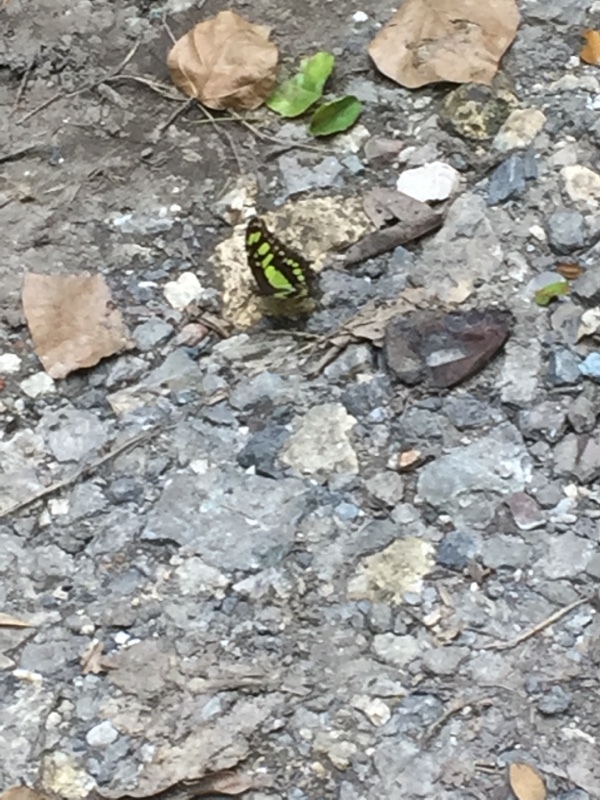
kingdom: Animalia
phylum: Arthropoda
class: Insecta
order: Lepidoptera
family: Nymphalidae
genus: Siproeta
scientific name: Siproeta stelenes
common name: Malachite
